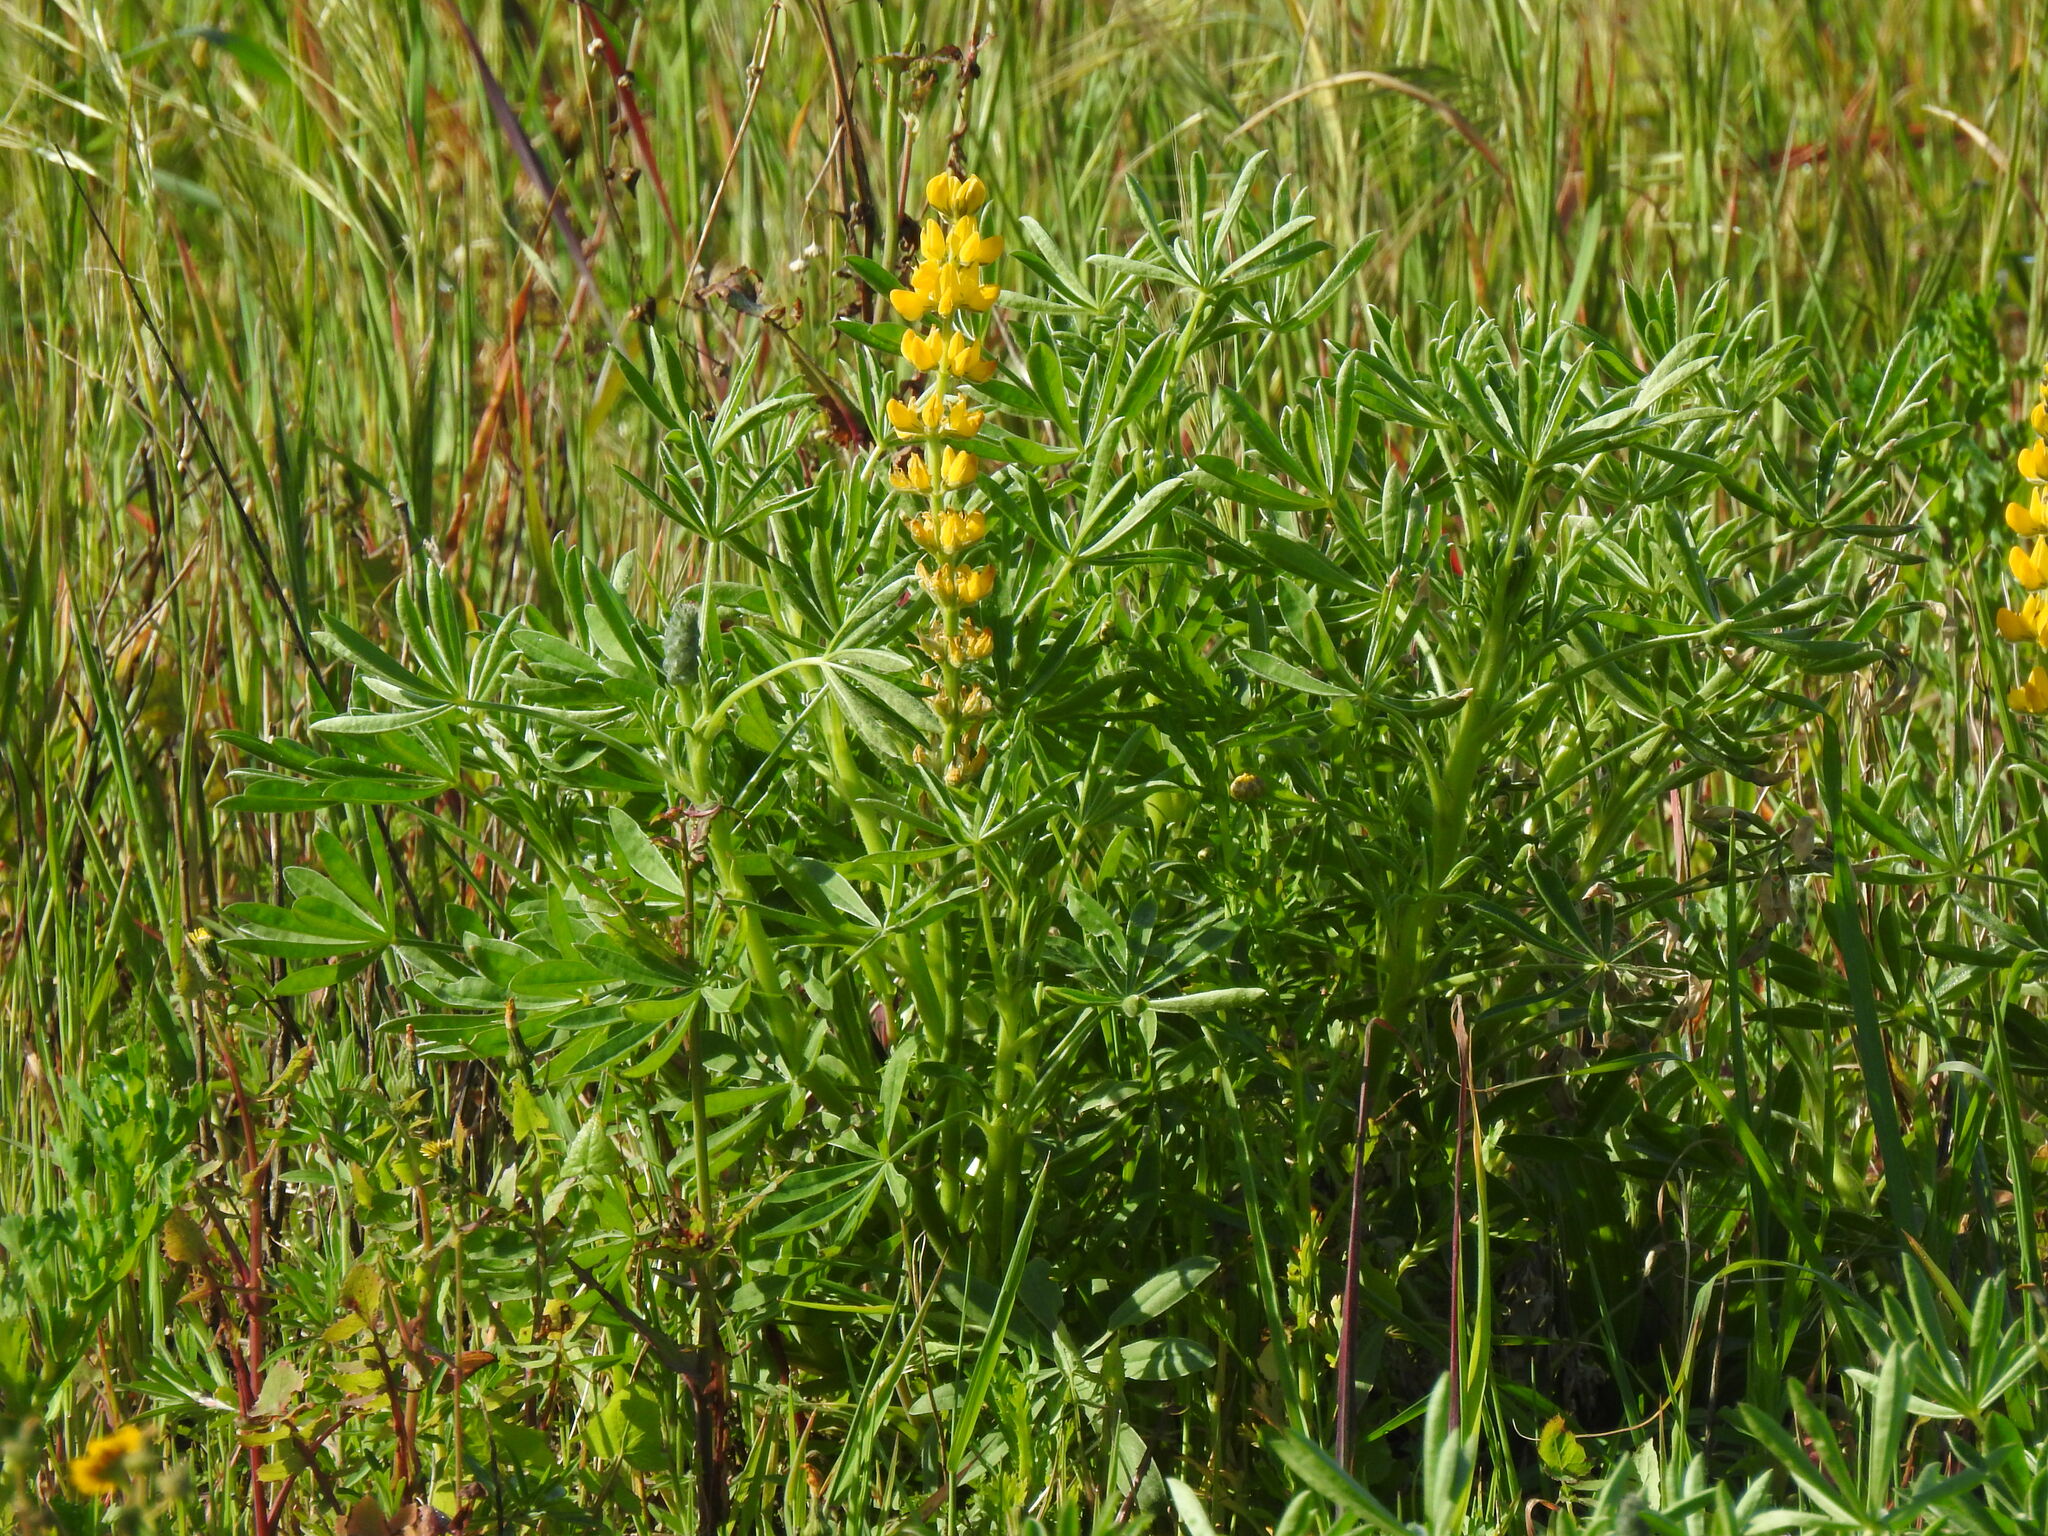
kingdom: Plantae
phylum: Tracheophyta
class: Magnoliopsida
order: Fabales
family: Fabaceae
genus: Lupinus
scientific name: Lupinus luteus
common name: European yellow lupine
